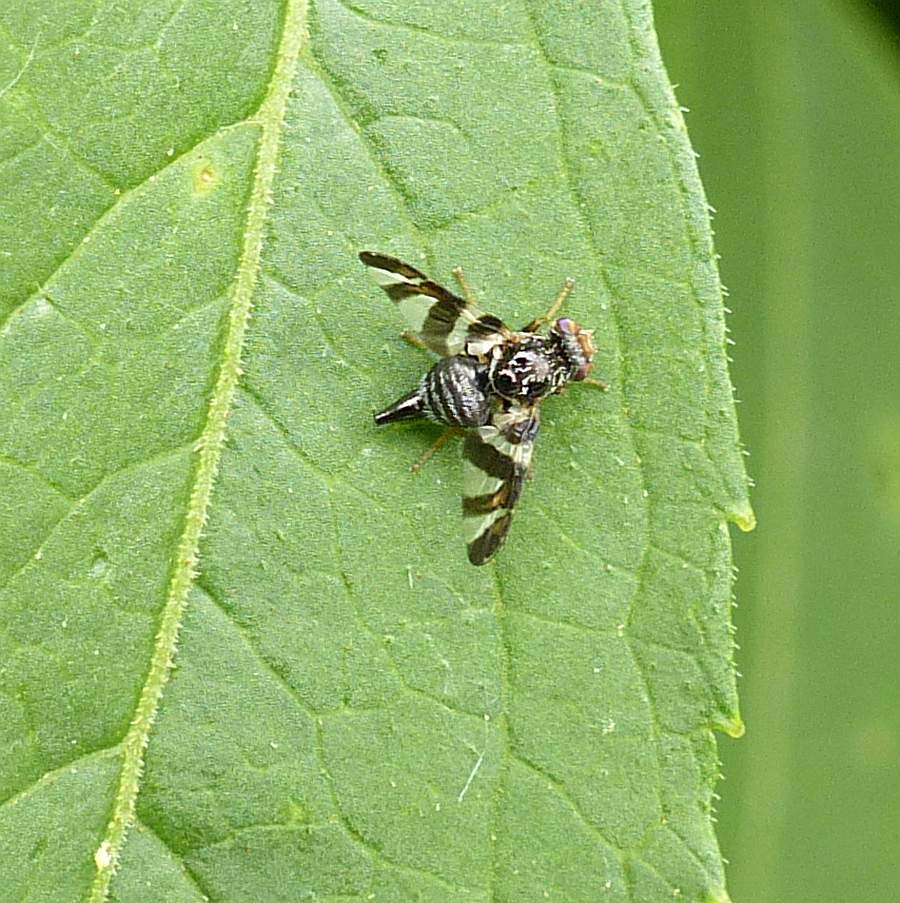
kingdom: Animalia
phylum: Arthropoda
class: Insecta
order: Diptera
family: Tephritidae
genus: Procecidochares
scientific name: Procecidochares atra
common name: Goldenrod brussels sprout gall fly
